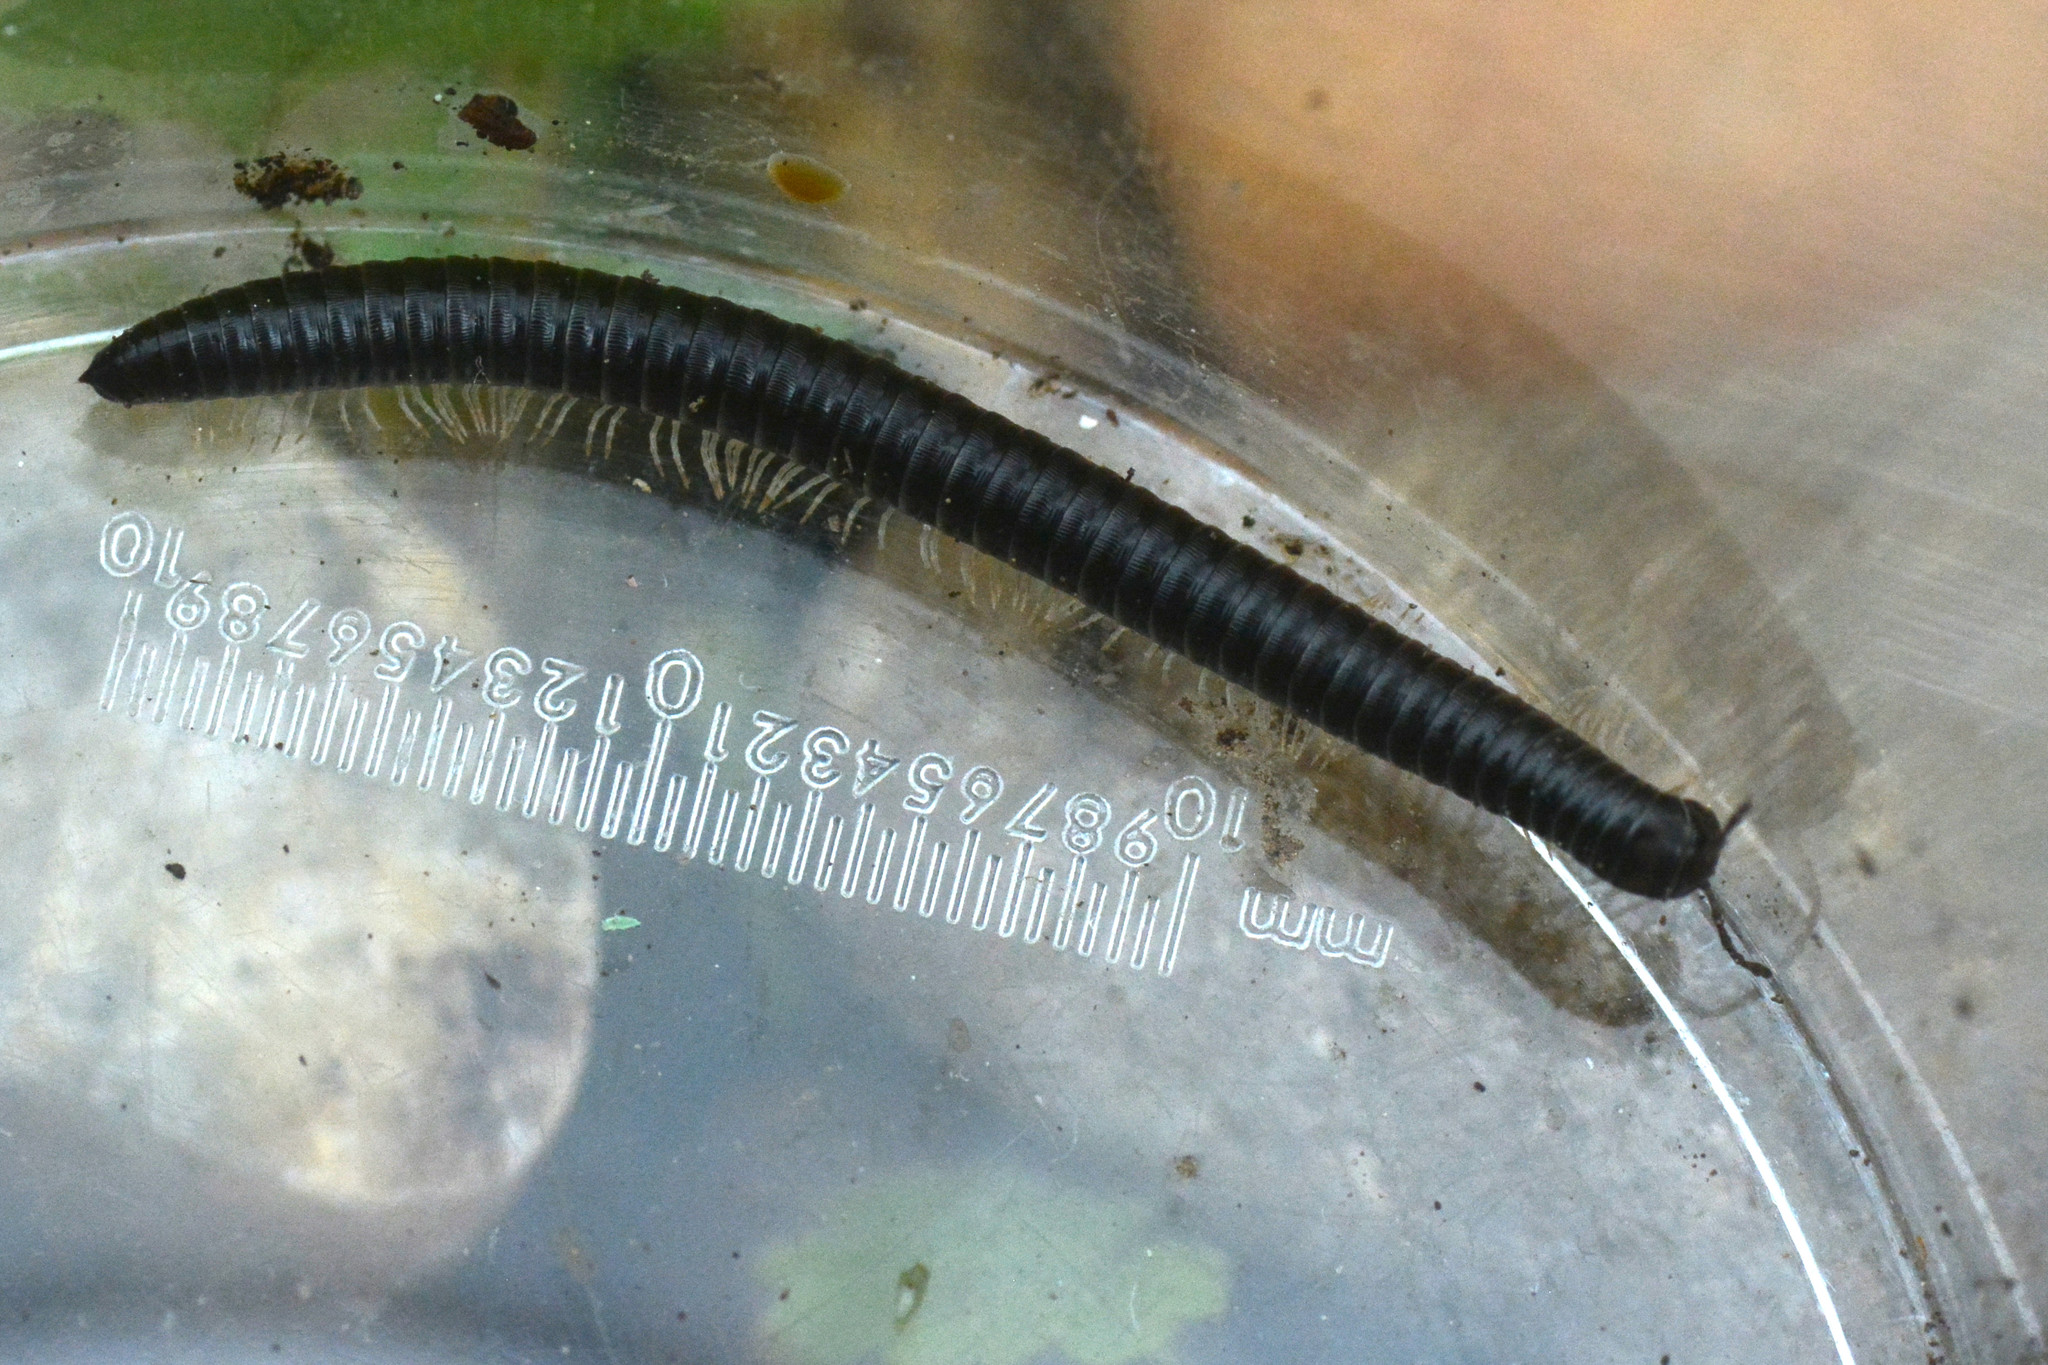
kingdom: Animalia
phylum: Arthropoda
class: Diplopoda
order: Julida
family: Julidae
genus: Tachypodoiulus
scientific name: Tachypodoiulus niger
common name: White-legged snake millipede
